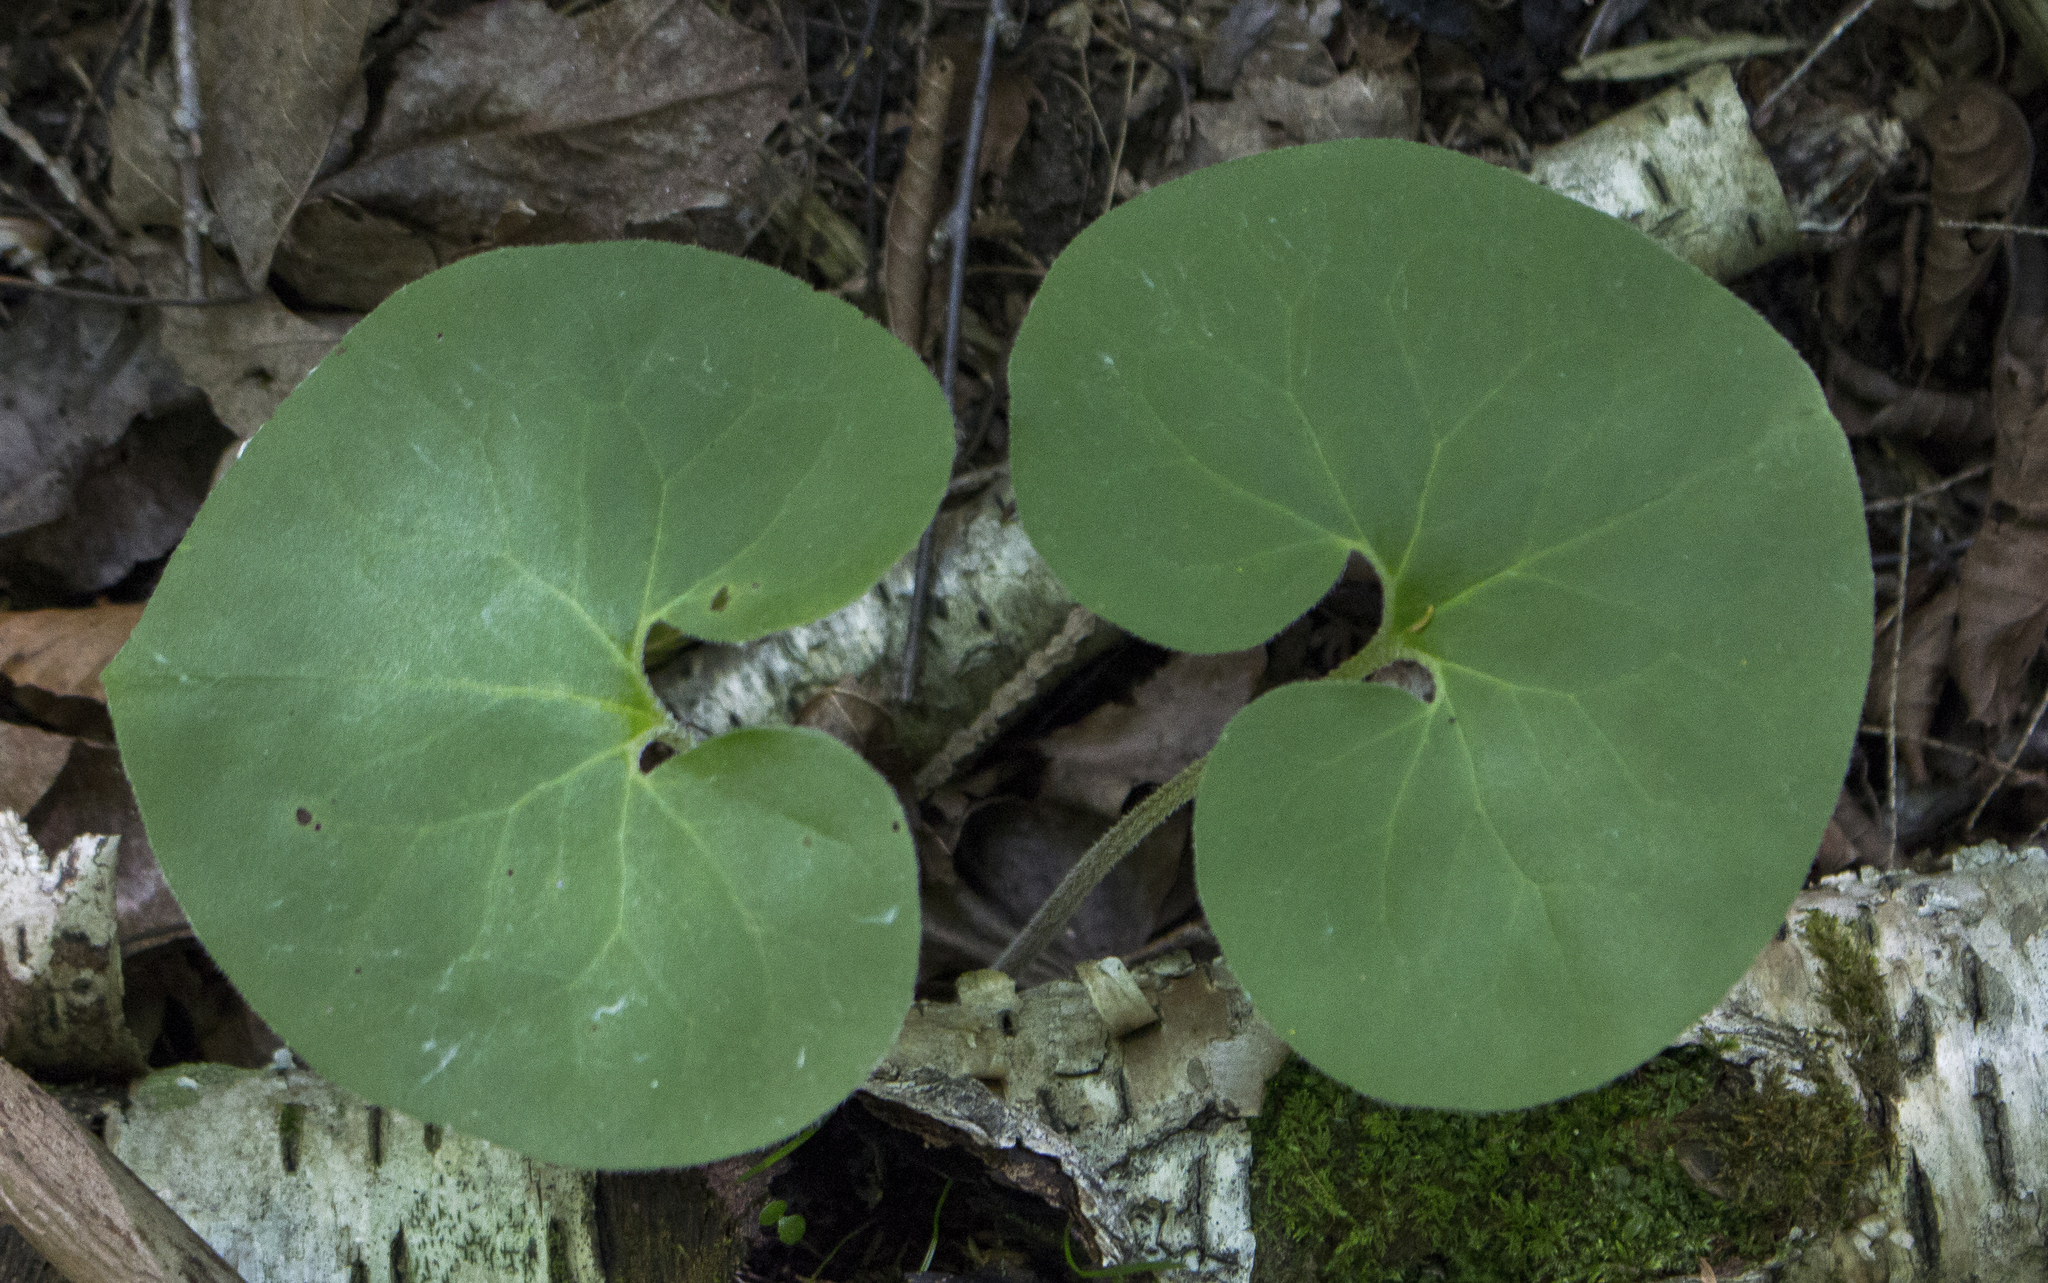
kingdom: Plantae
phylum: Tracheophyta
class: Magnoliopsida
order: Piperales
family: Aristolochiaceae
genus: Asarum
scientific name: Asarum canadense
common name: Wild ginger
